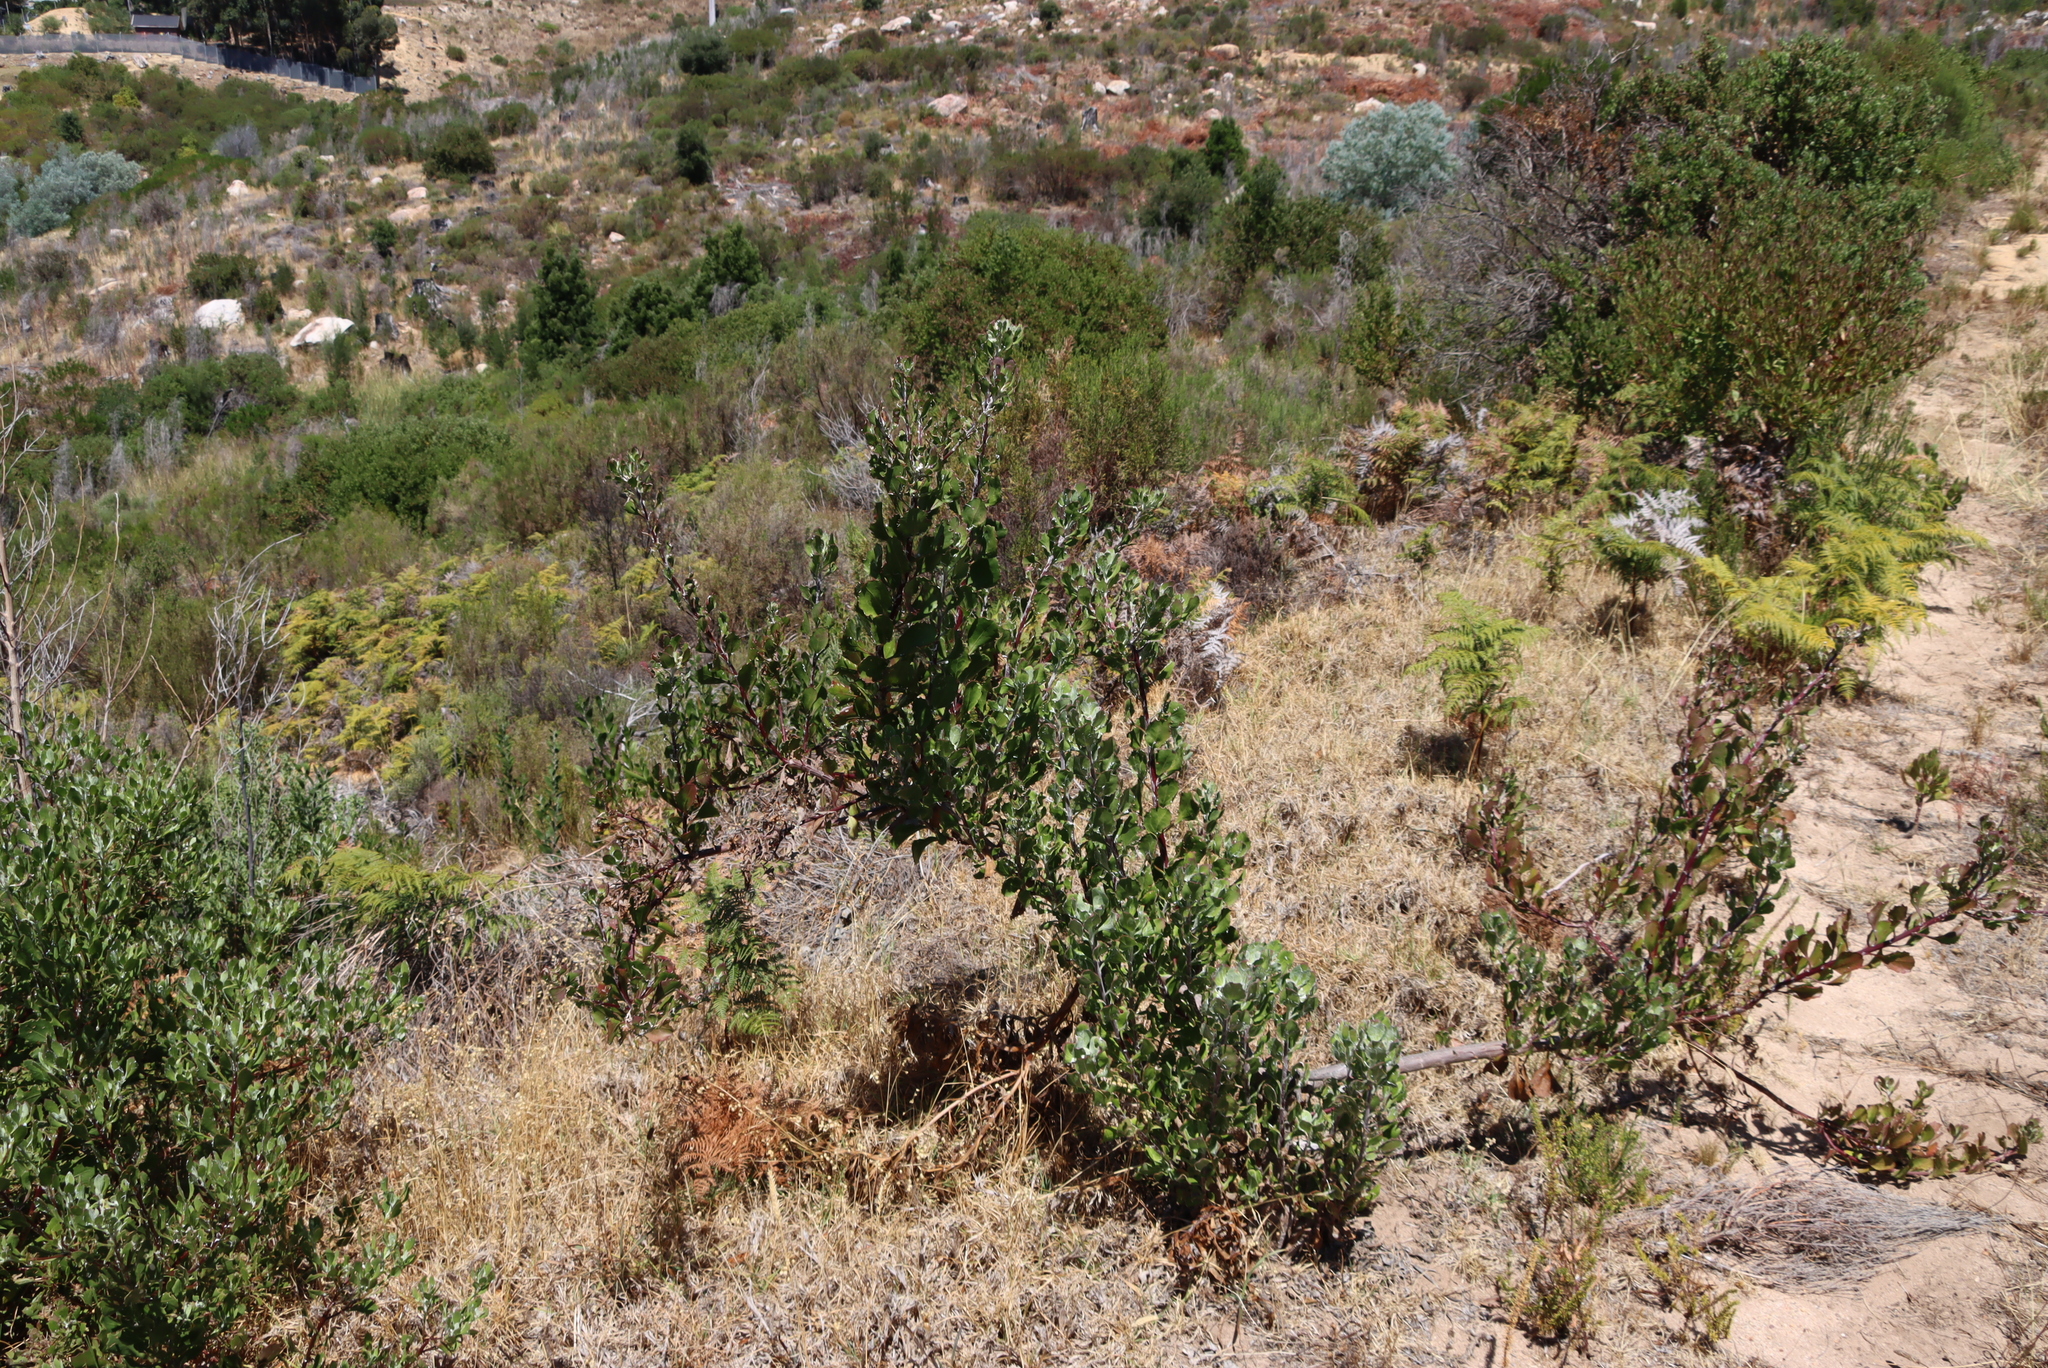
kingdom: Plantae
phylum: Tracheophyta
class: Magnoliopsida
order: Asterales
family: Asteraceae
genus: Osteospermum
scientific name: Osteospermum moniliferum
